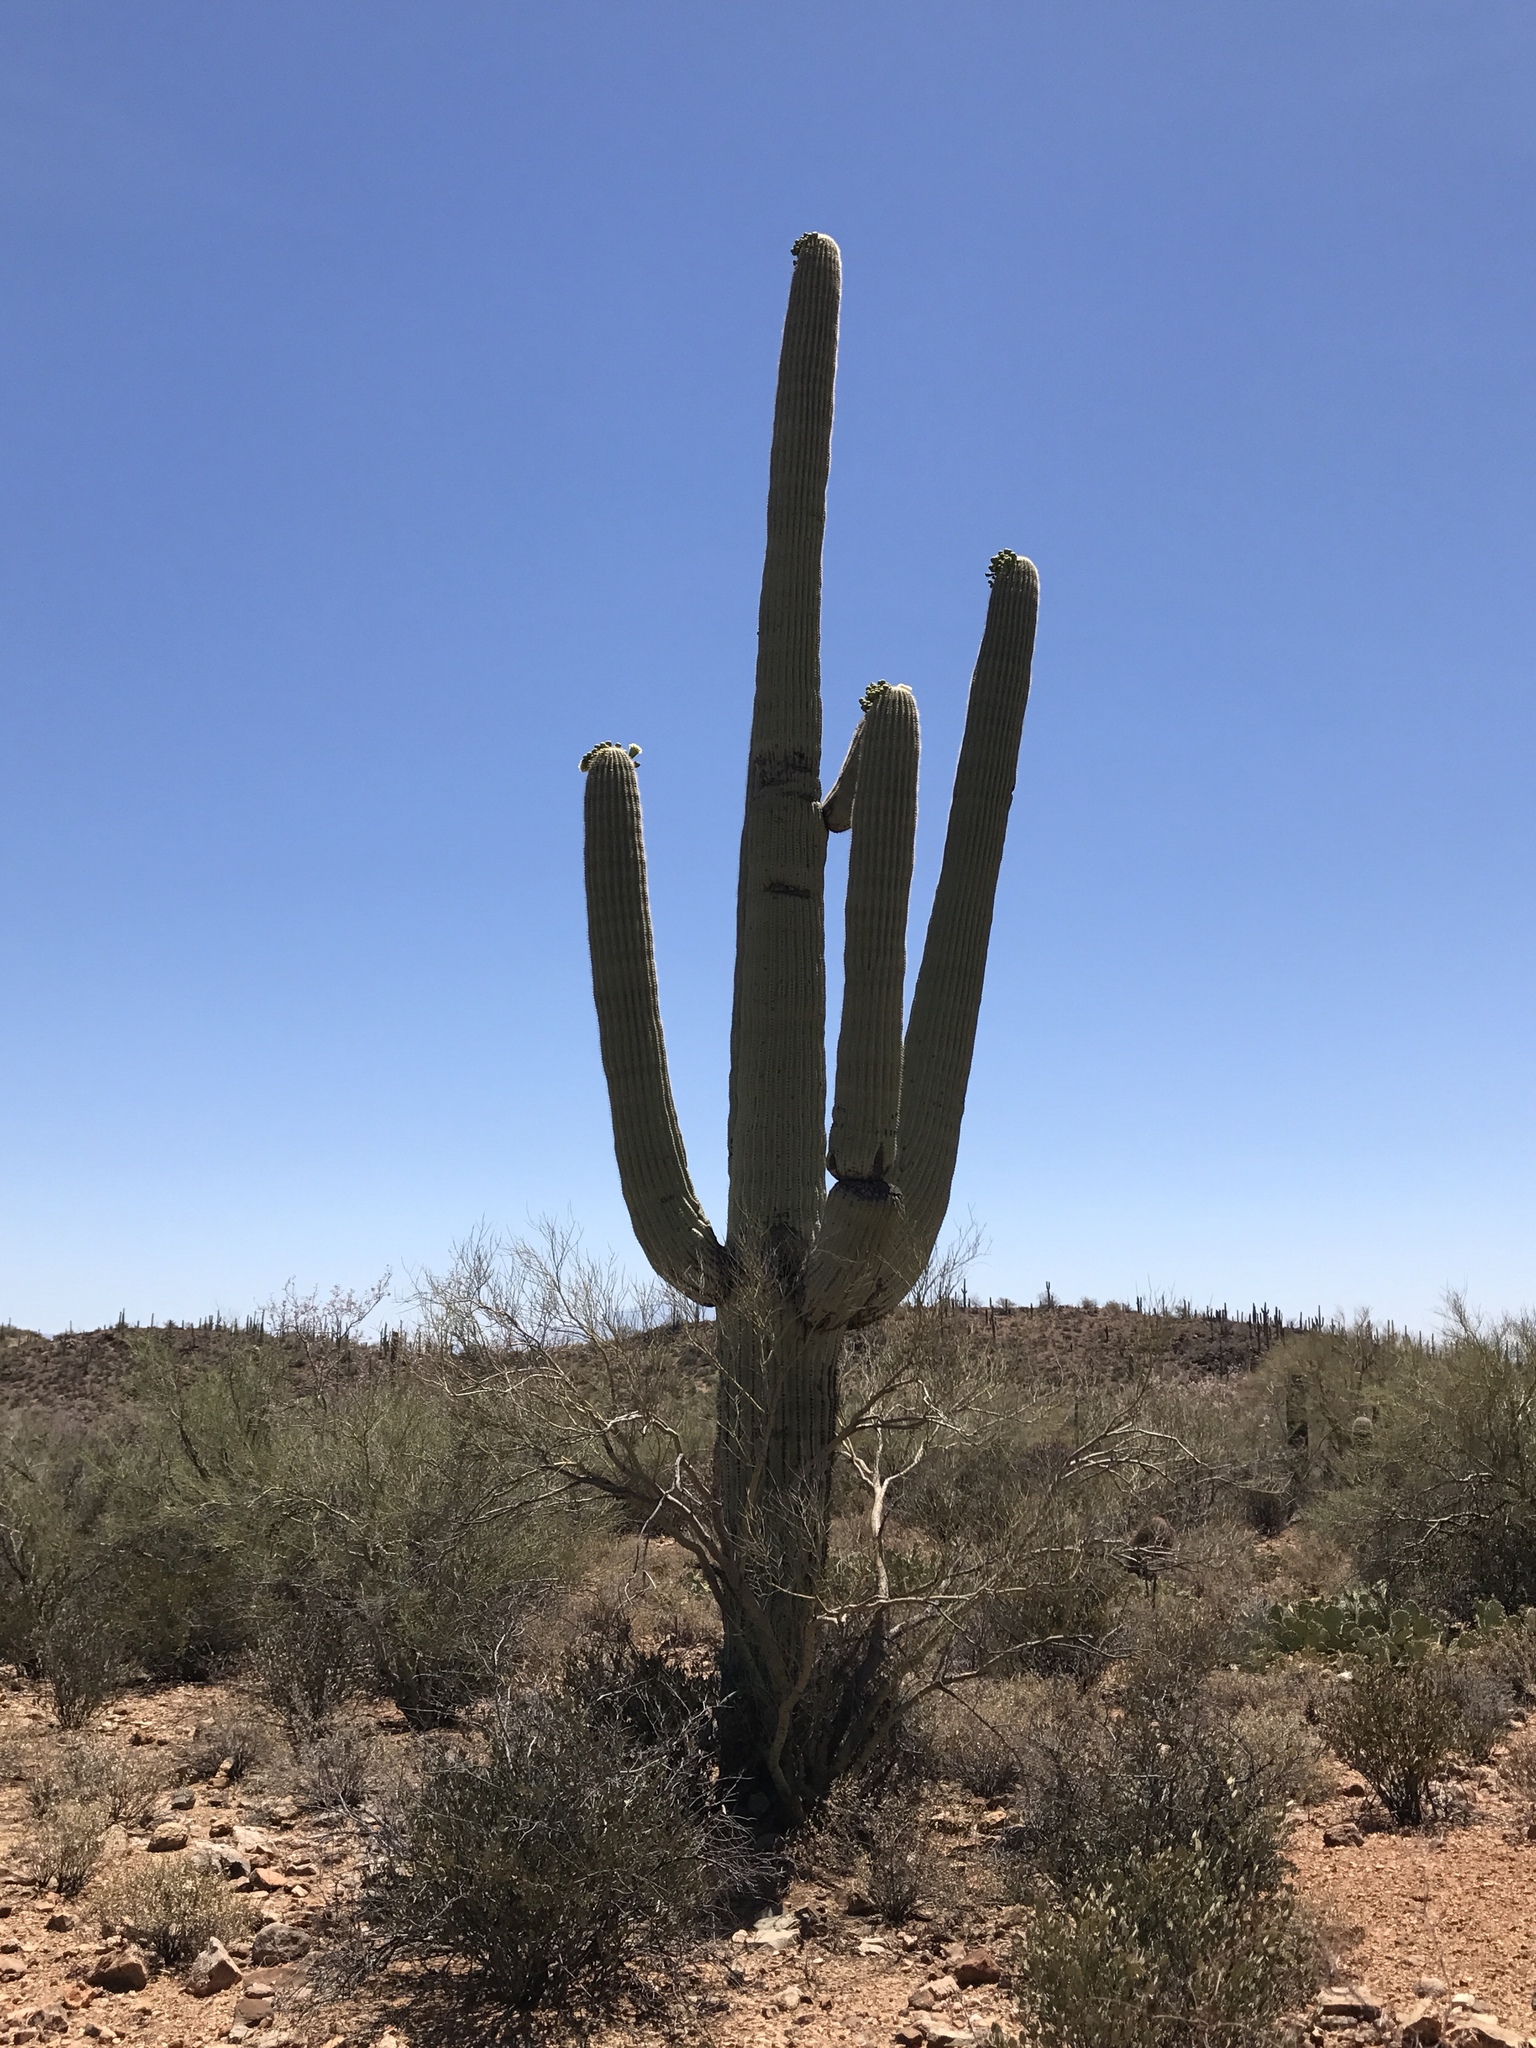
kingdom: Plantae
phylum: Tracheophyta
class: Magnoliopsida
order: Caryophyllales
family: Cactaceae
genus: Carnegiea
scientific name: Carnegiea gigantea
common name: Saguaro
